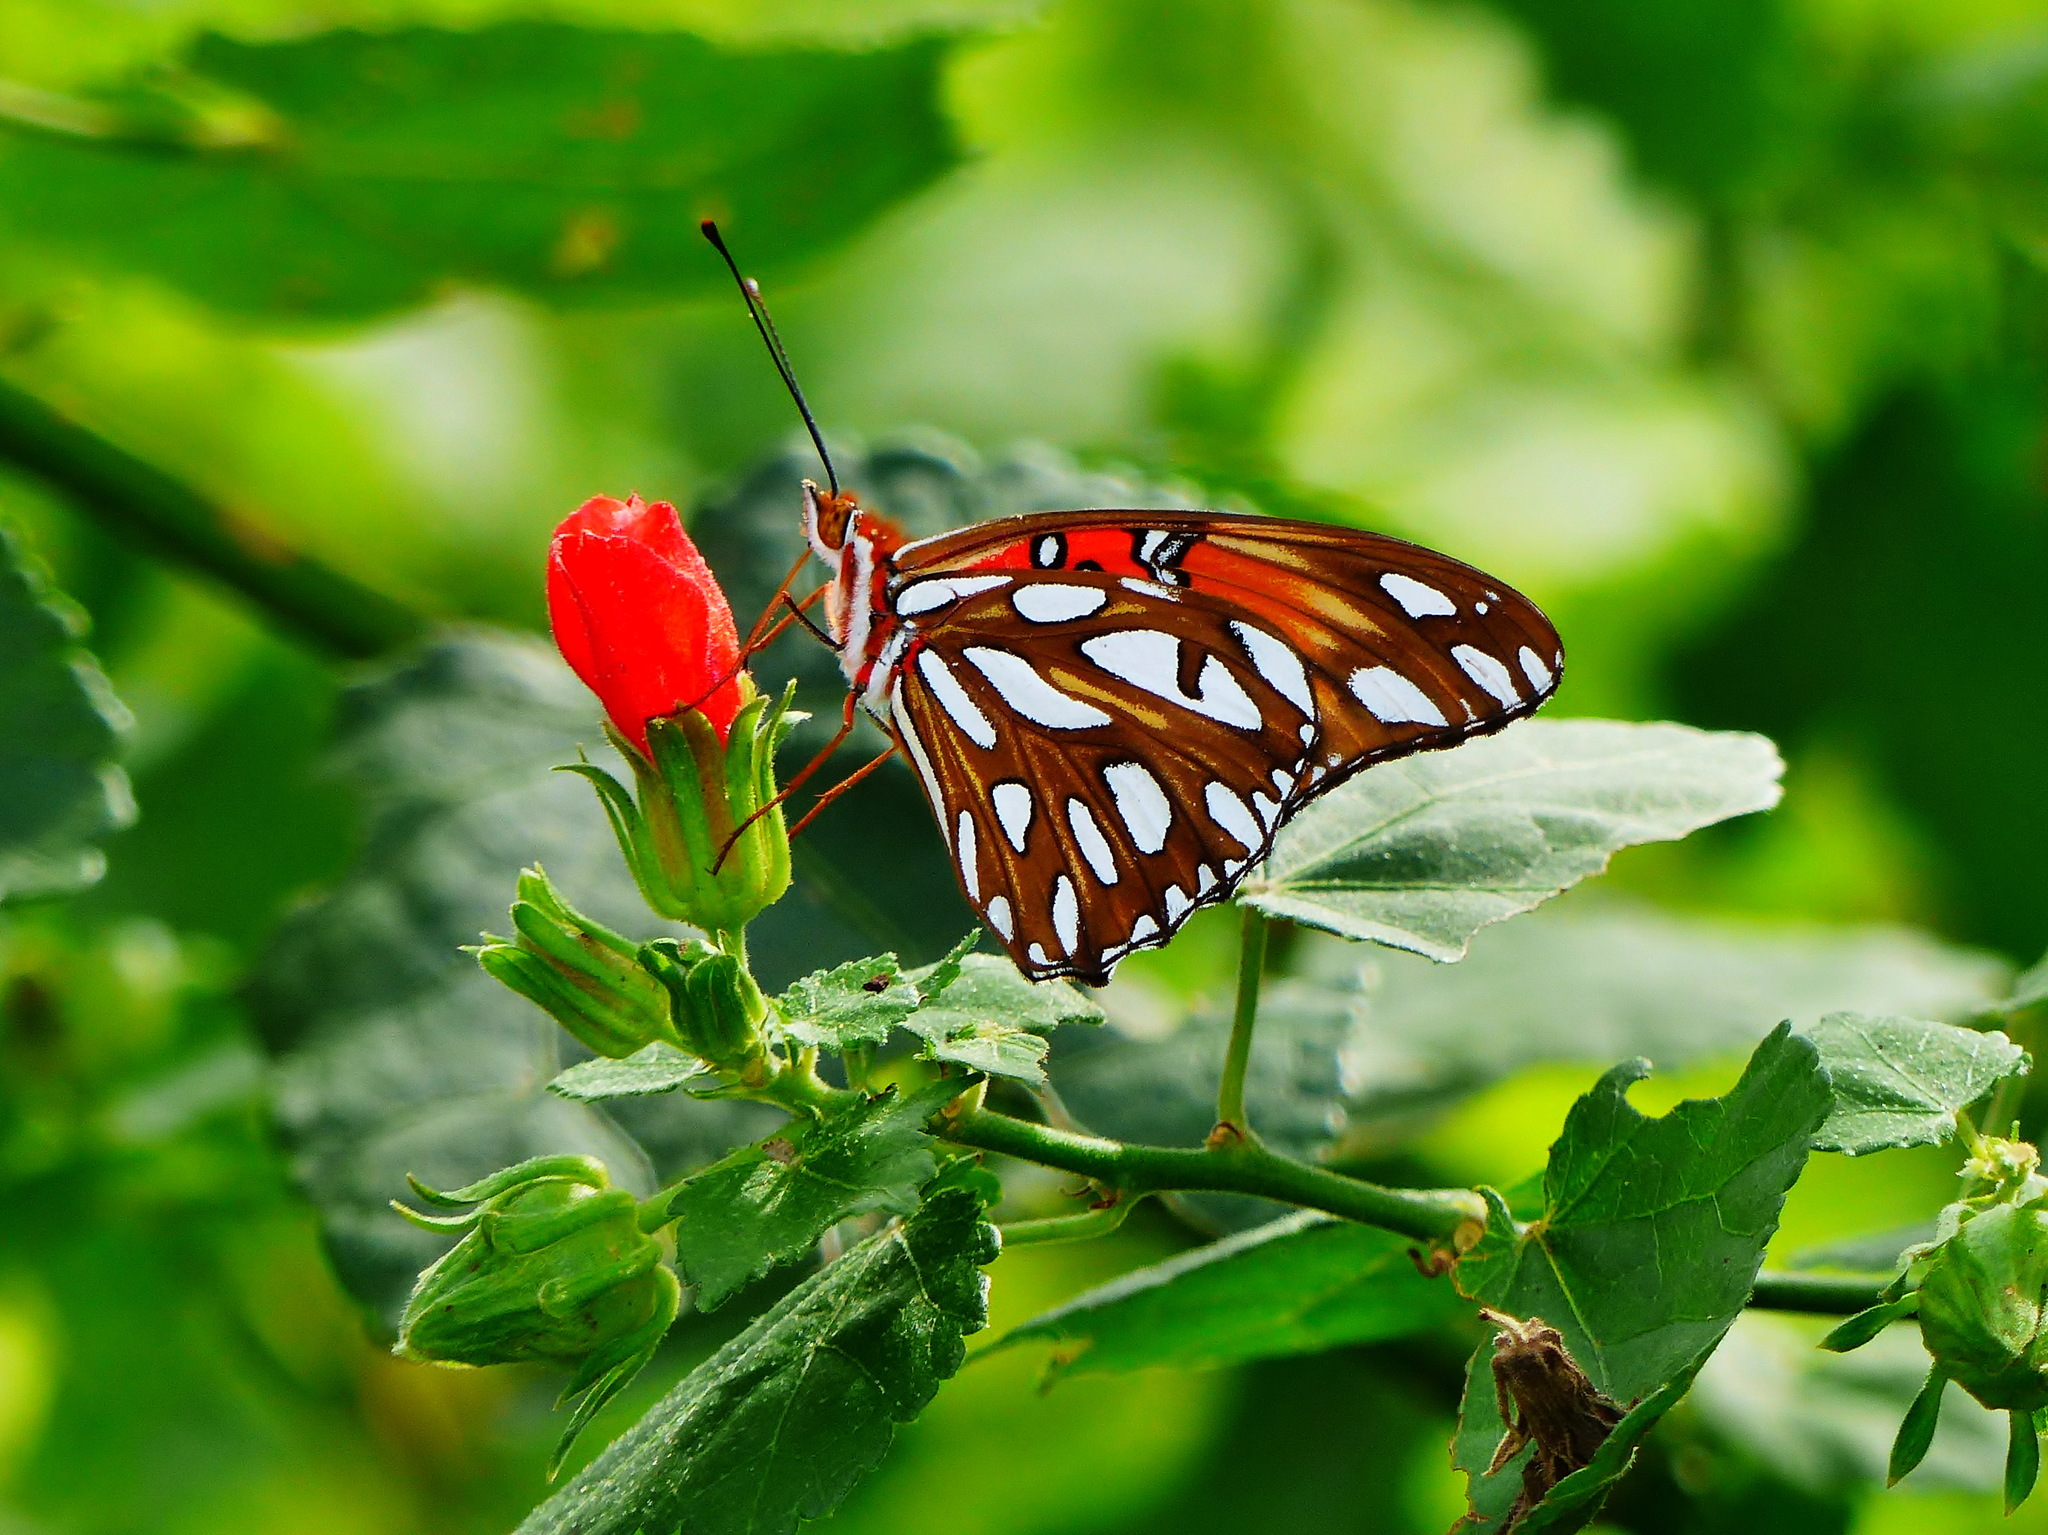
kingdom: Animalia
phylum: Arthropoda
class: Insecta
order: Lepidoptera
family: Nymphalidae
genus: Dione
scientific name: Dione vanillae
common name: Gulf fritillary
